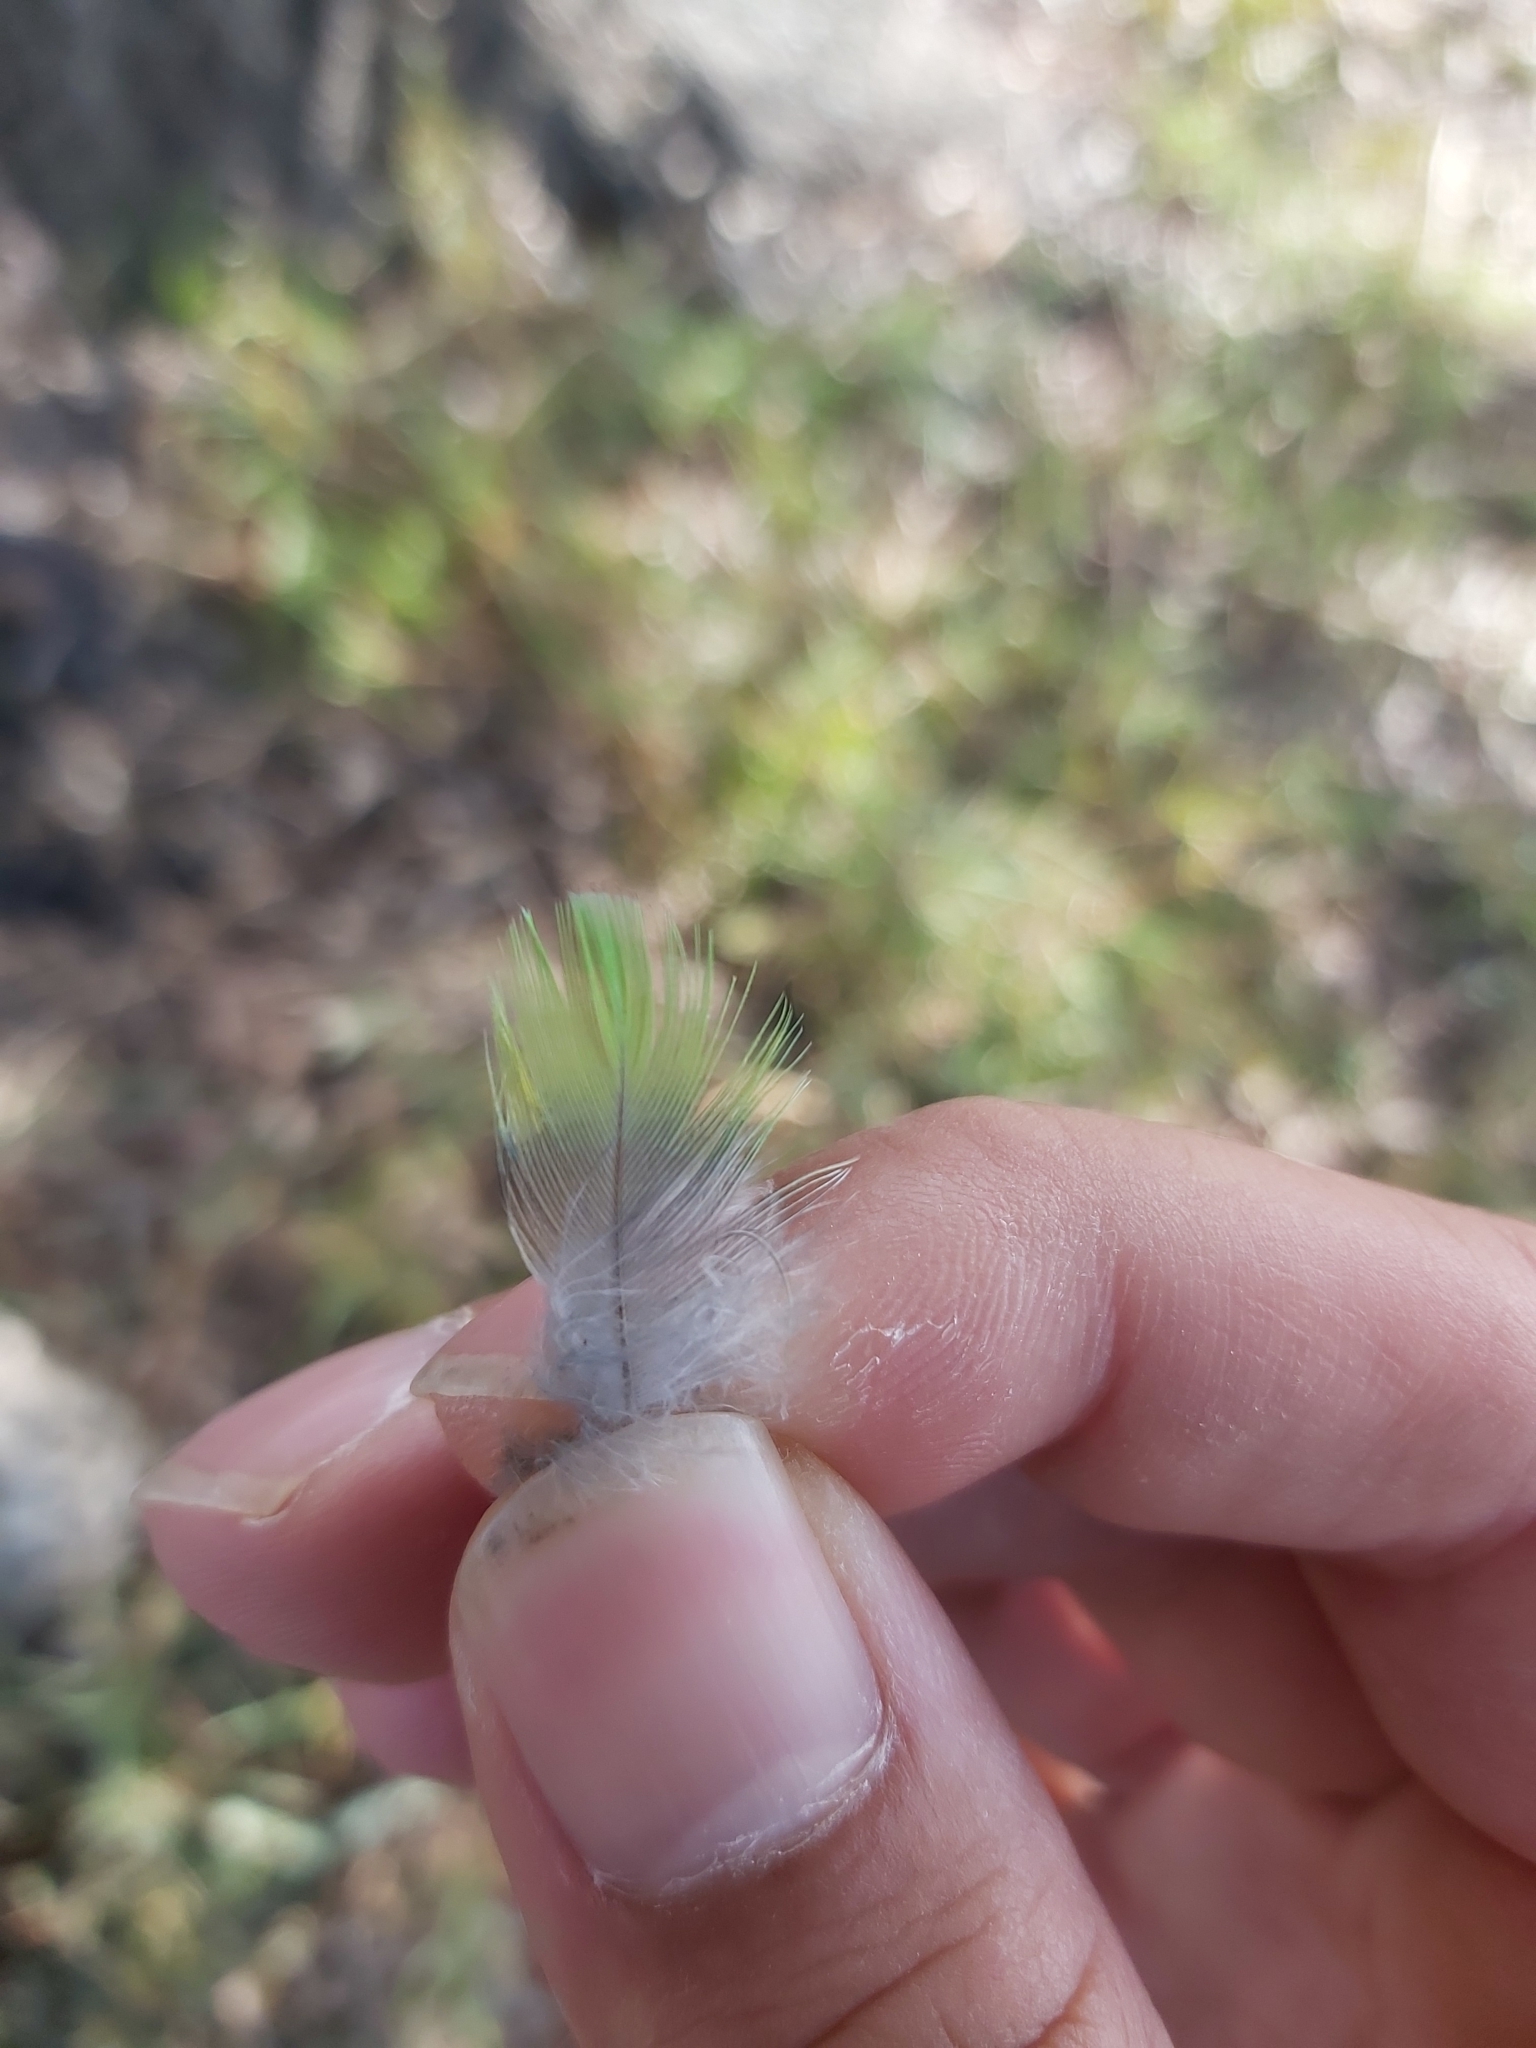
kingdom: Animalia
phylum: Chordata
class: Aves
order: Psittaciformes
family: Psittacidae
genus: Psephotus
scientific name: Psephotus haematonotus
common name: Red-rumped parrot
